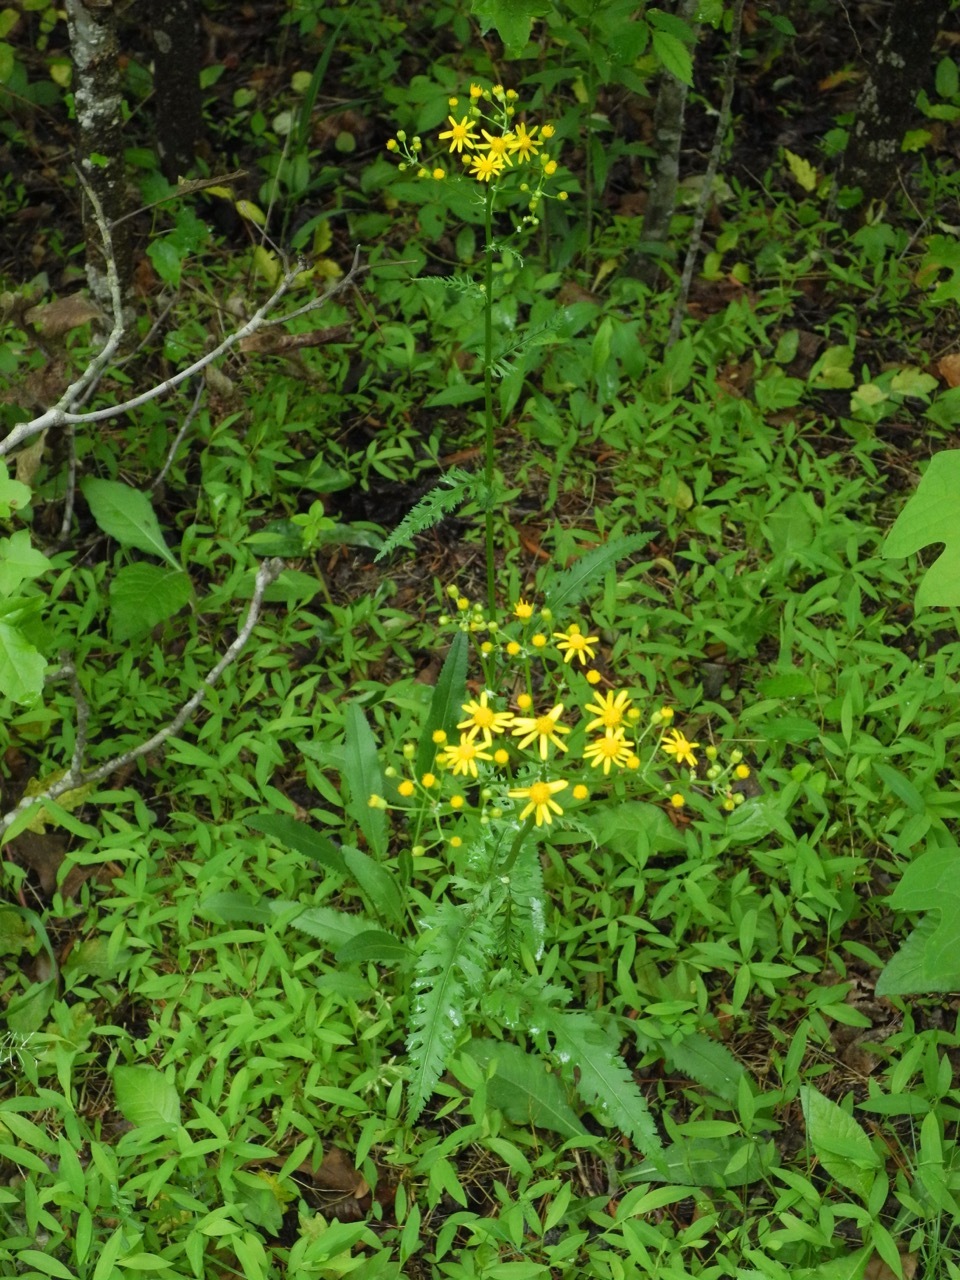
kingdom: Plantae
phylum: Tracheophyta
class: Magnoliopsida
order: Asterales
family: Asteraceae
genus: Packera
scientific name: Packera anonyma
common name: Small ragwort
